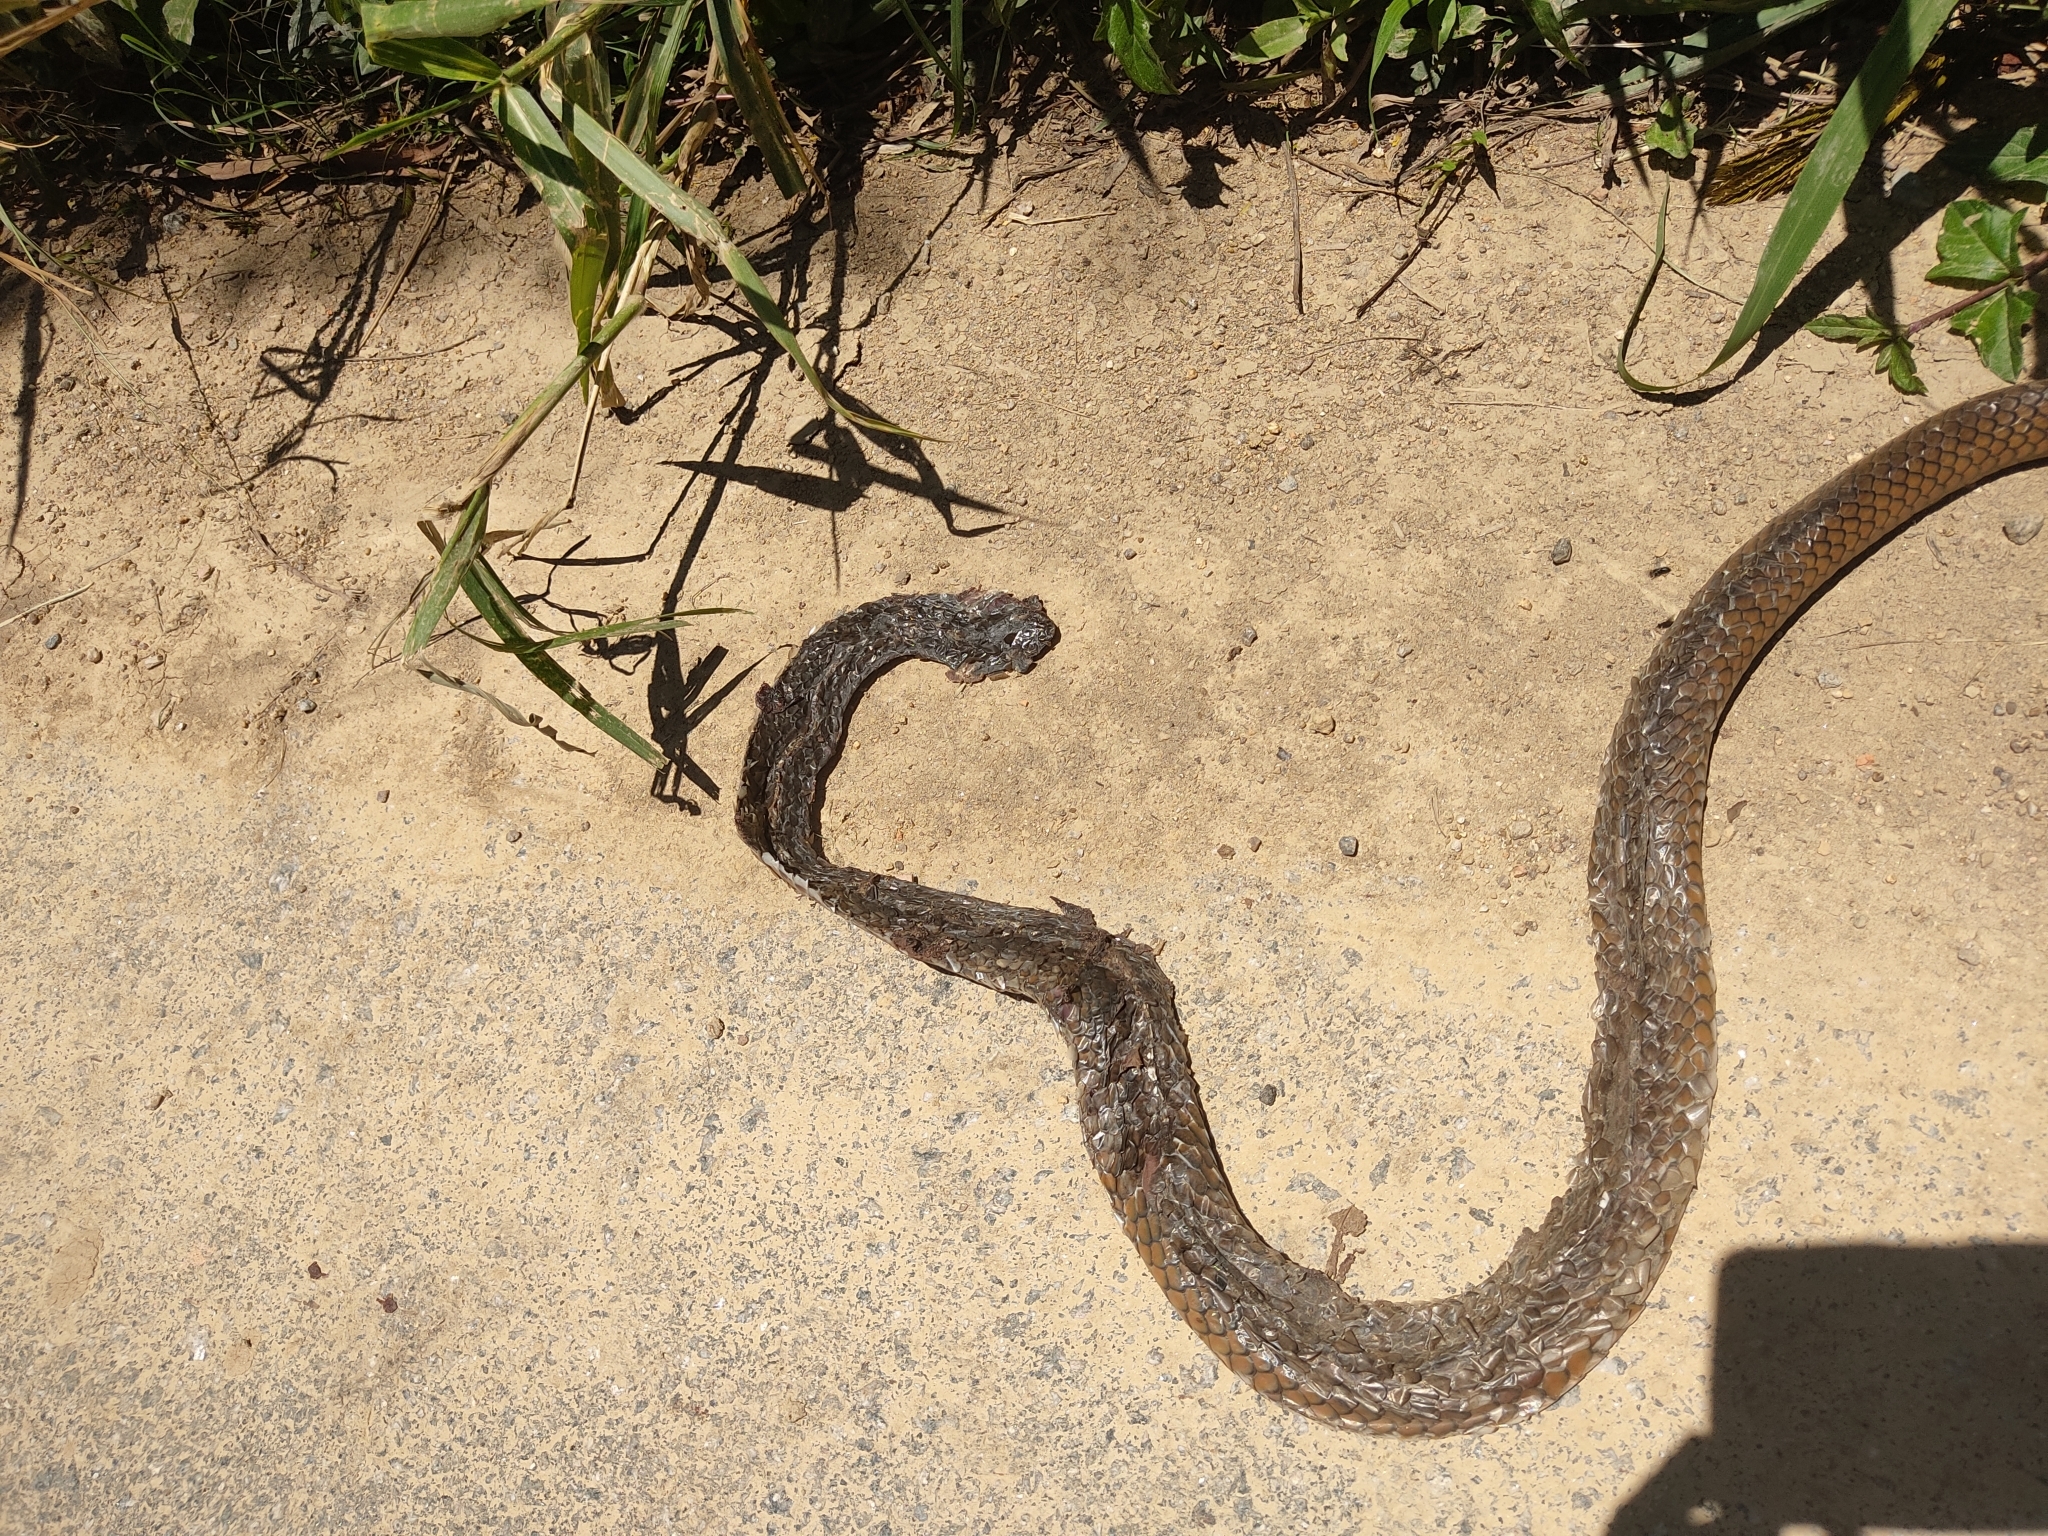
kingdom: Animalia
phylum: Chordata
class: Squamata
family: Colubridae
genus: Chironius
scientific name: Chironius laevicollis
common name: Brazilian sipo
